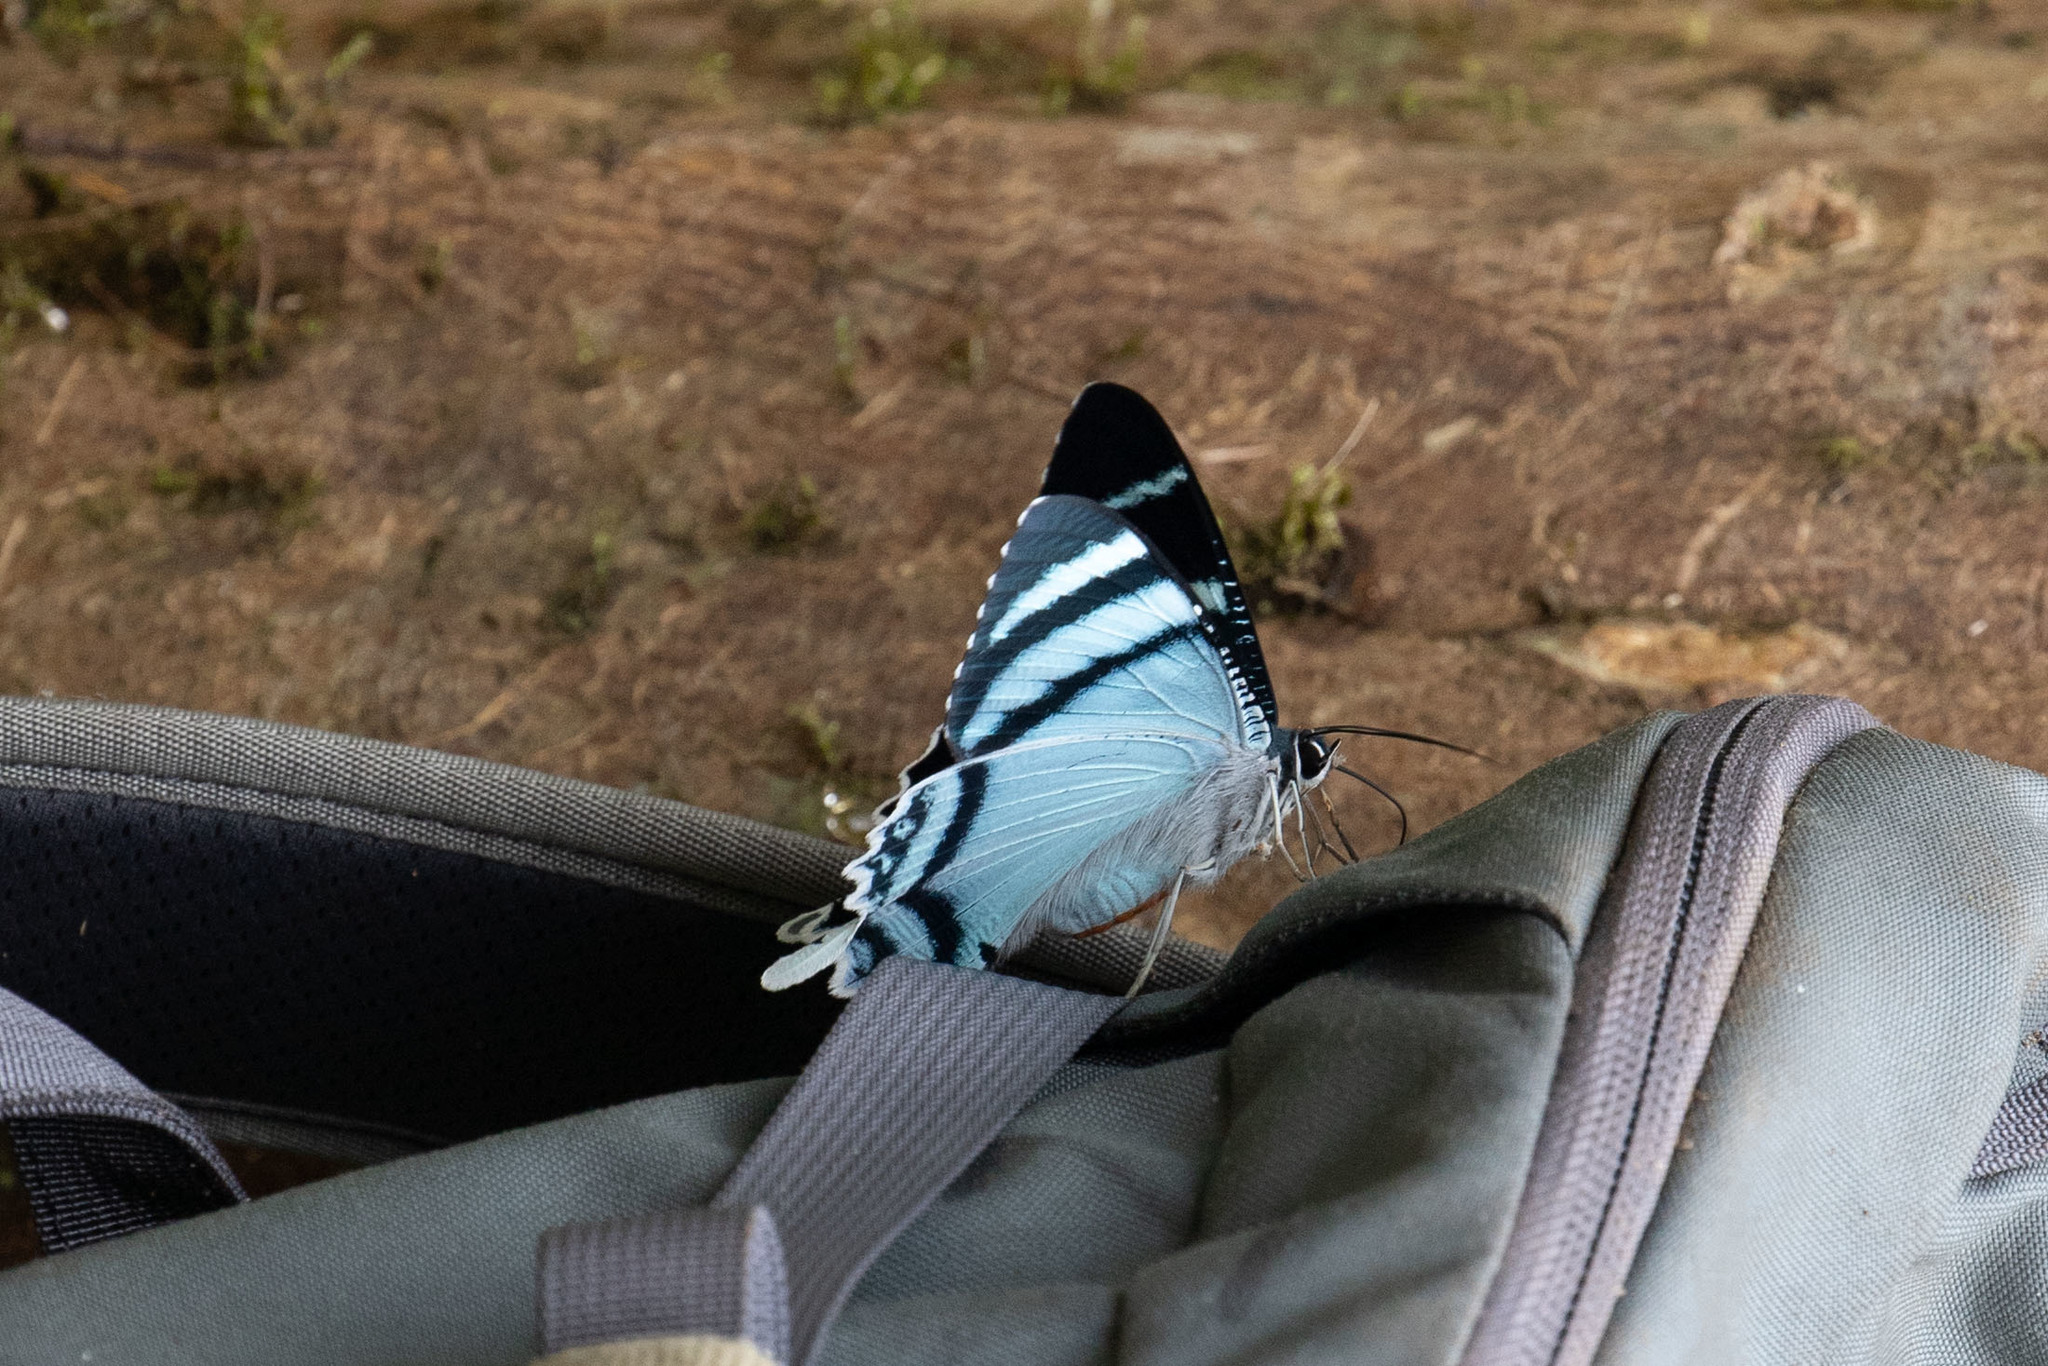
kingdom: Animalia
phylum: Arthropoda
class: Insecta
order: Lepidoptera
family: Uraniidae
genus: Lyssa
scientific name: Lyssa aruus
